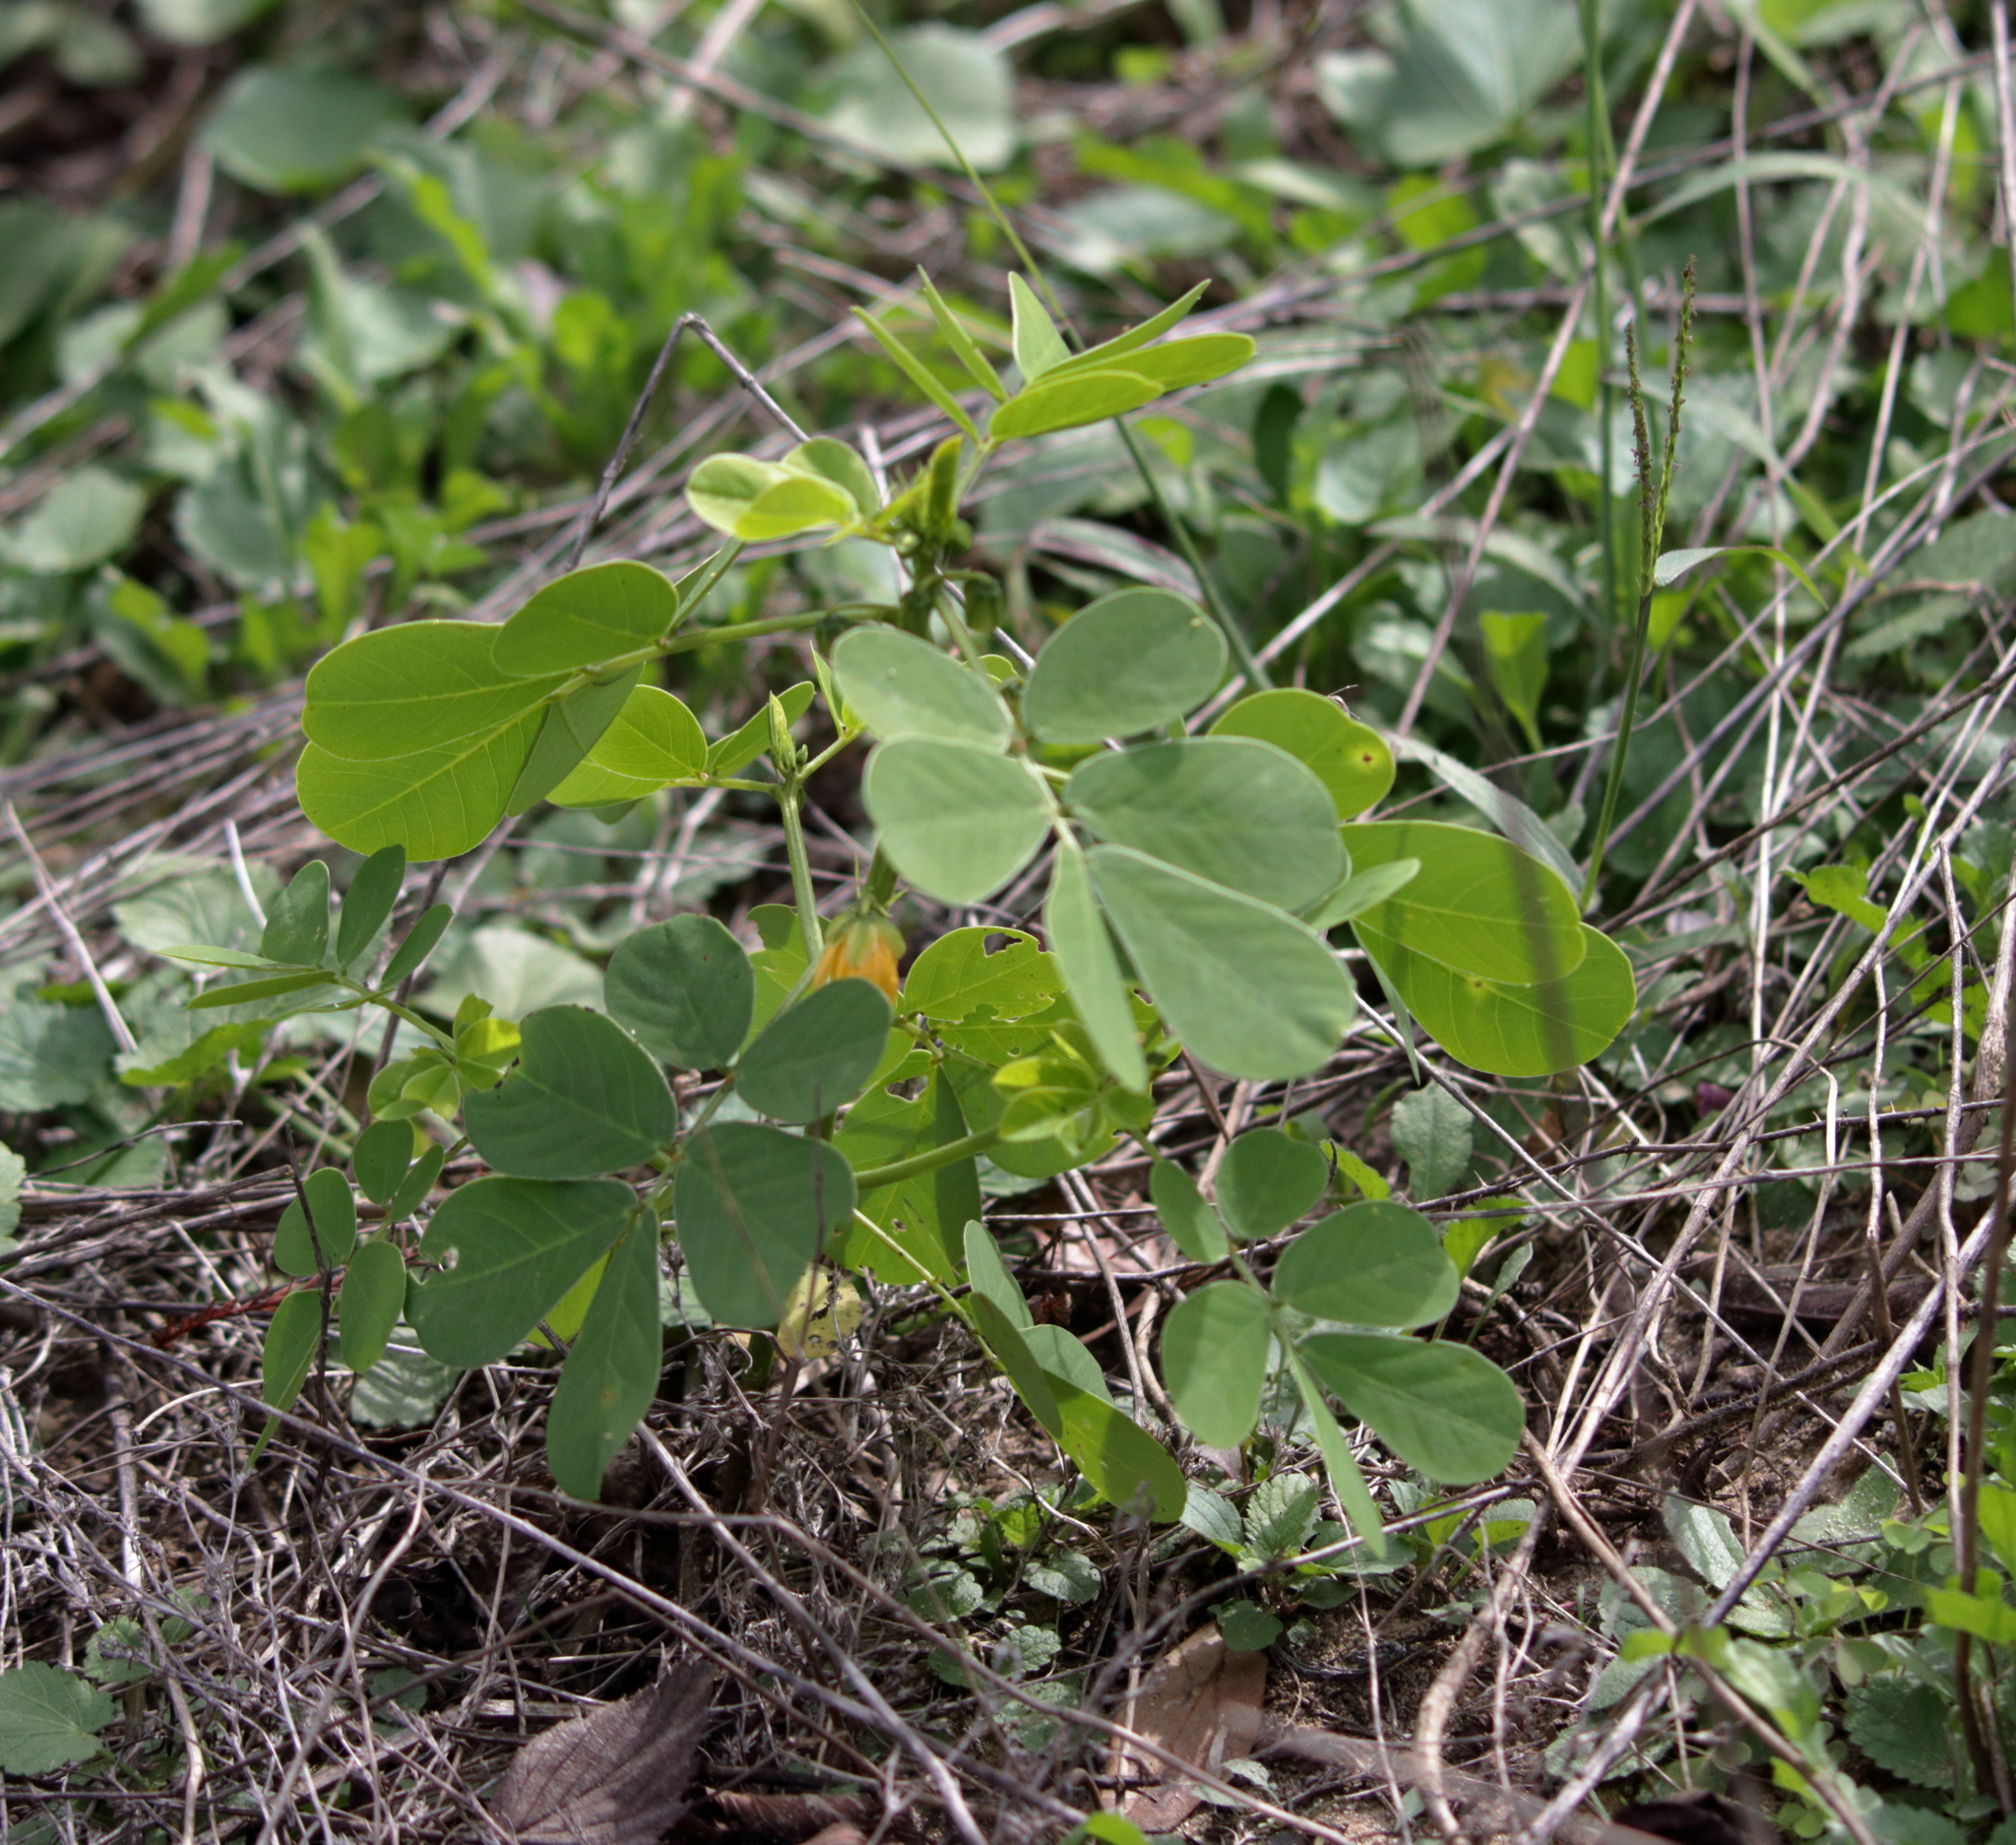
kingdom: Plantae
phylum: Tracheophyta
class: Magnoliopsida
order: Fabales
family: Fabaceae
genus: Senna
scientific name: Senna obtusifolia
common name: Java-bean
